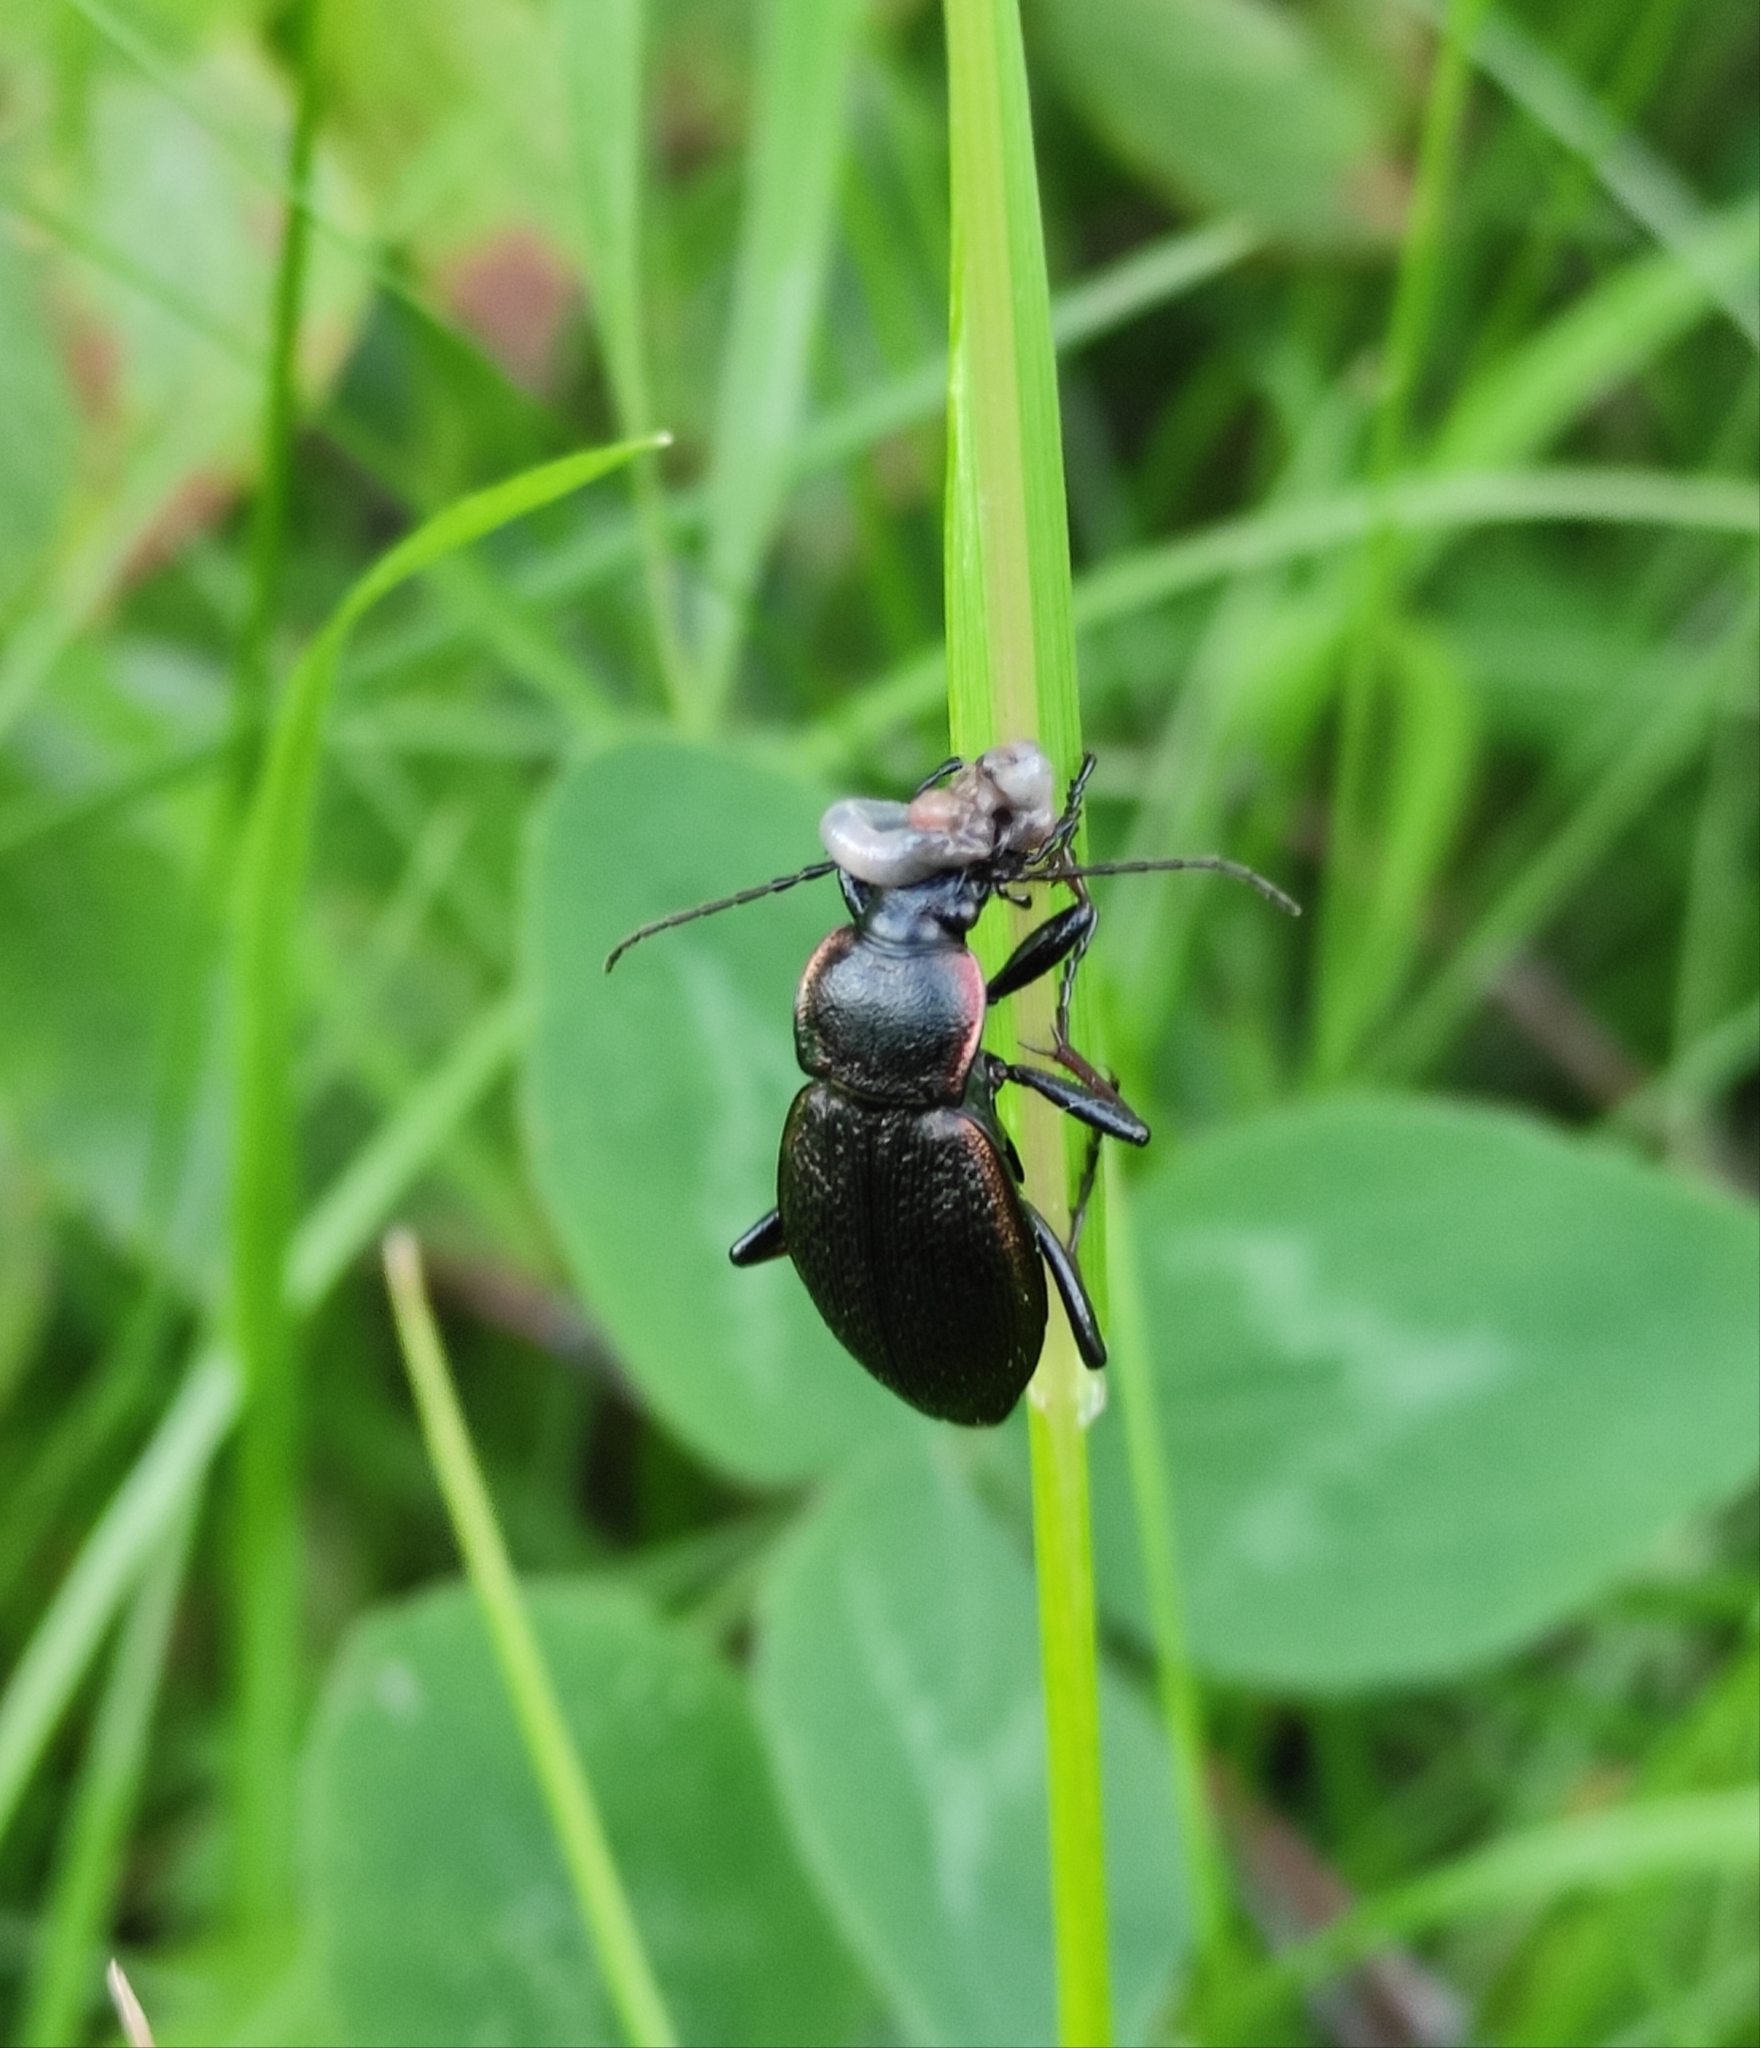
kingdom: Animalia
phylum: Arthropoda
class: Insecta
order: Coleoptera
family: Carabidae
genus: Carabus
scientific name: Carabus henningi
